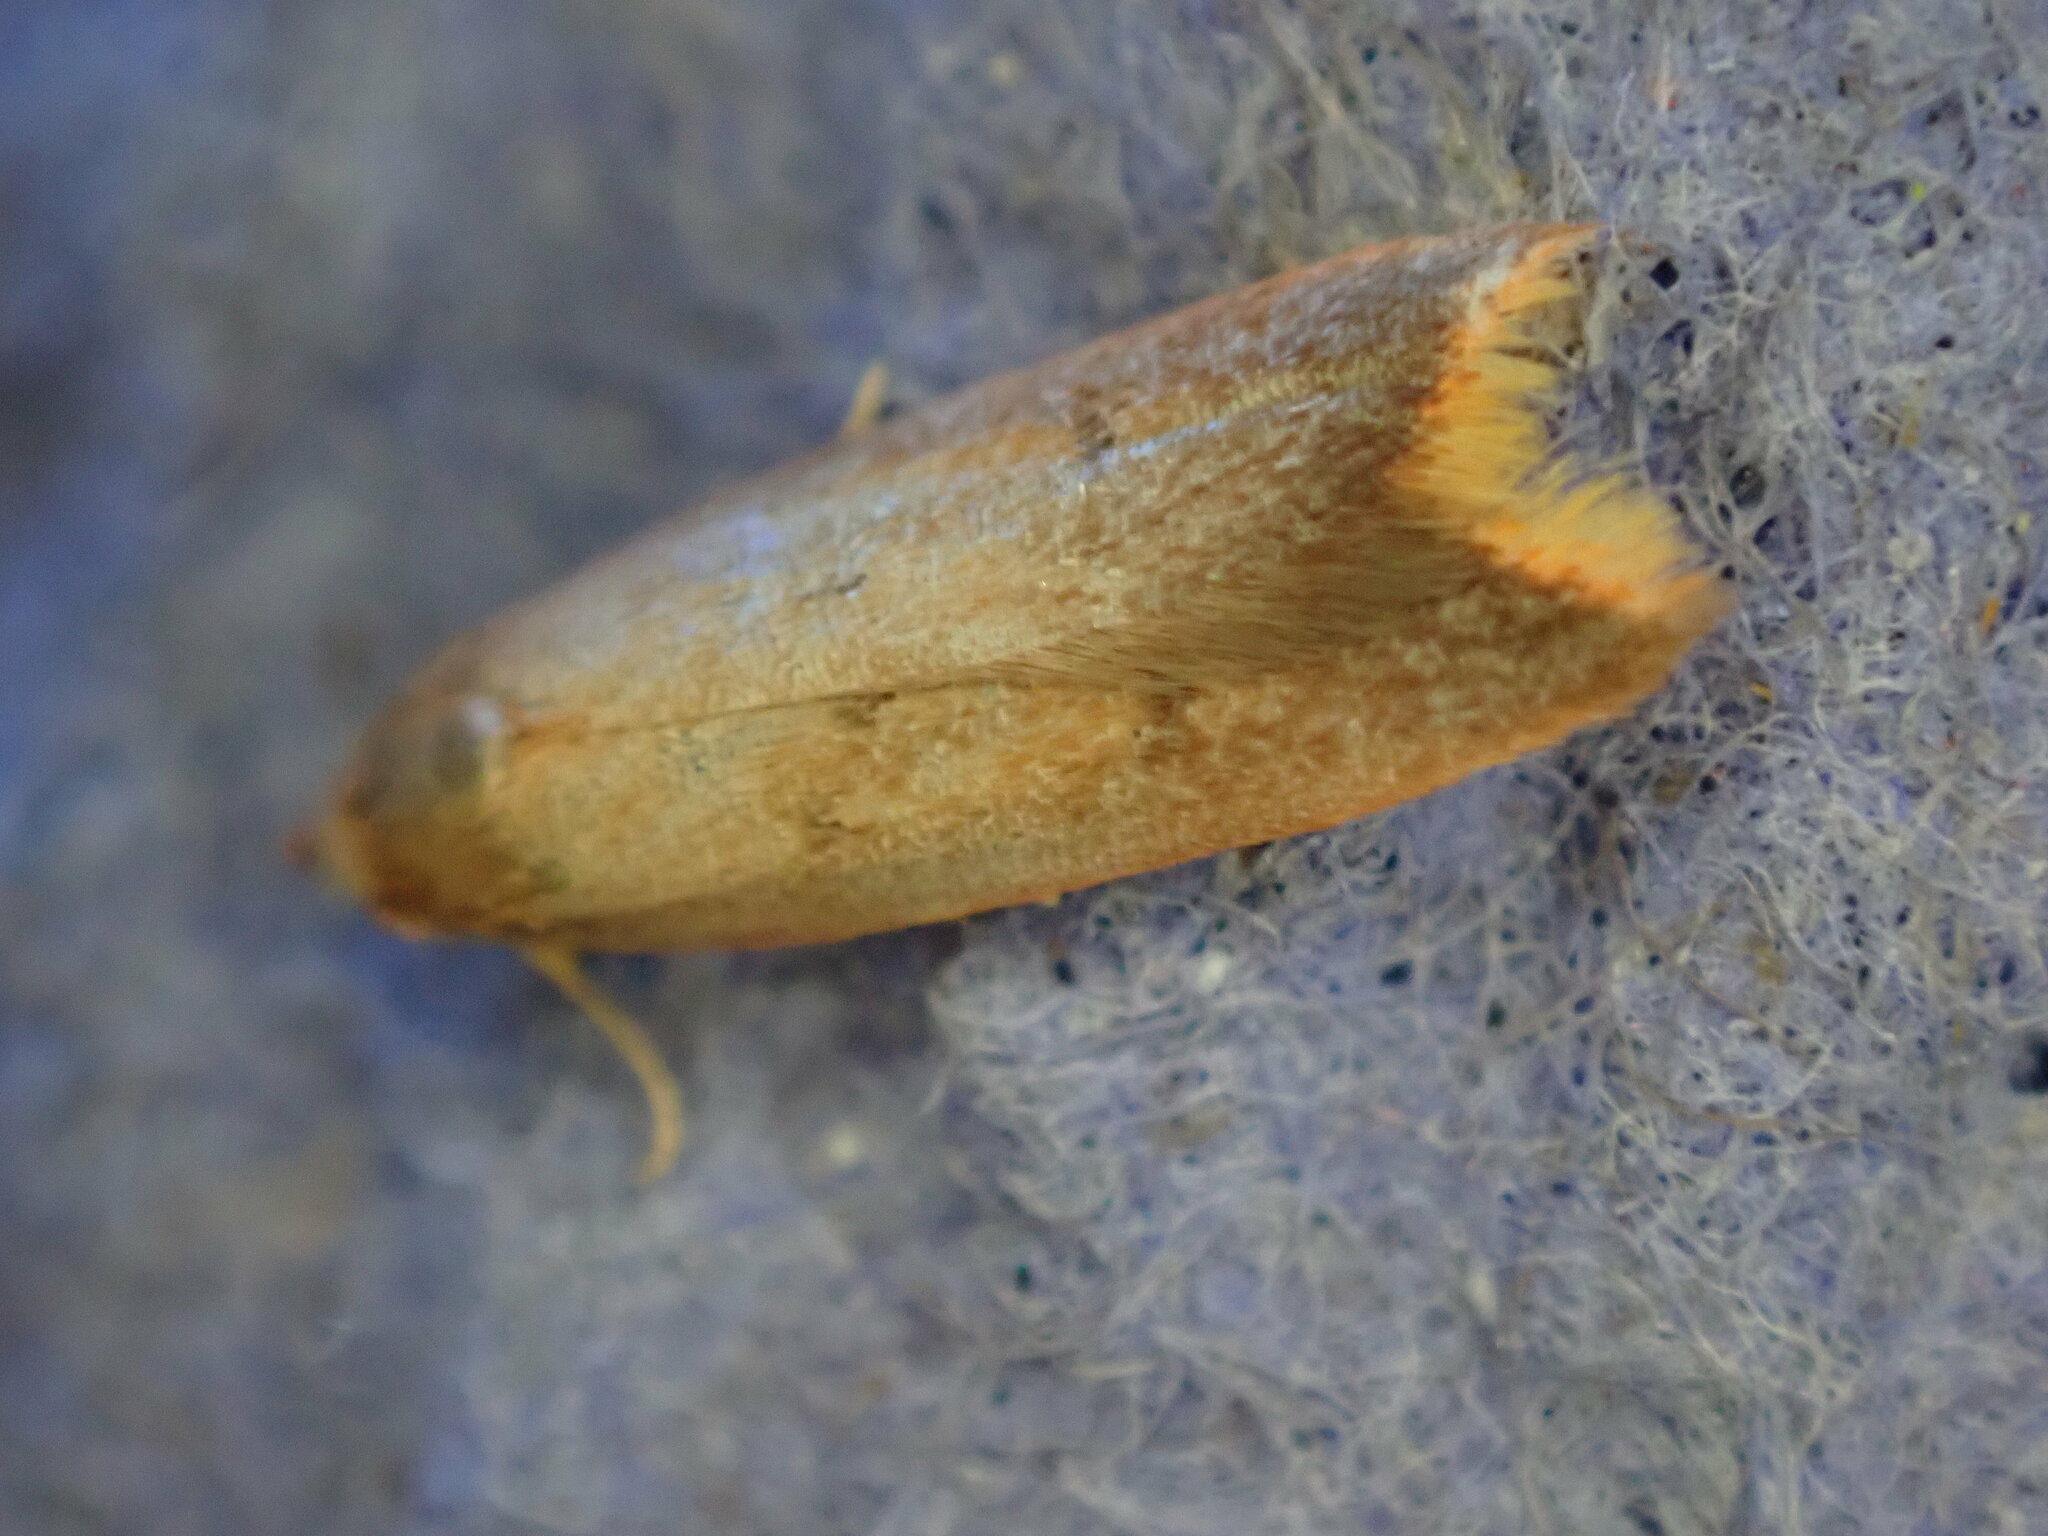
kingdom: Animalia
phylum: Arthropoda
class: Insecta
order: Lepidoptera
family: Oecophoridae
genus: Tachystola
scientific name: Tachystola acroxantha
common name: Ruddy streak
